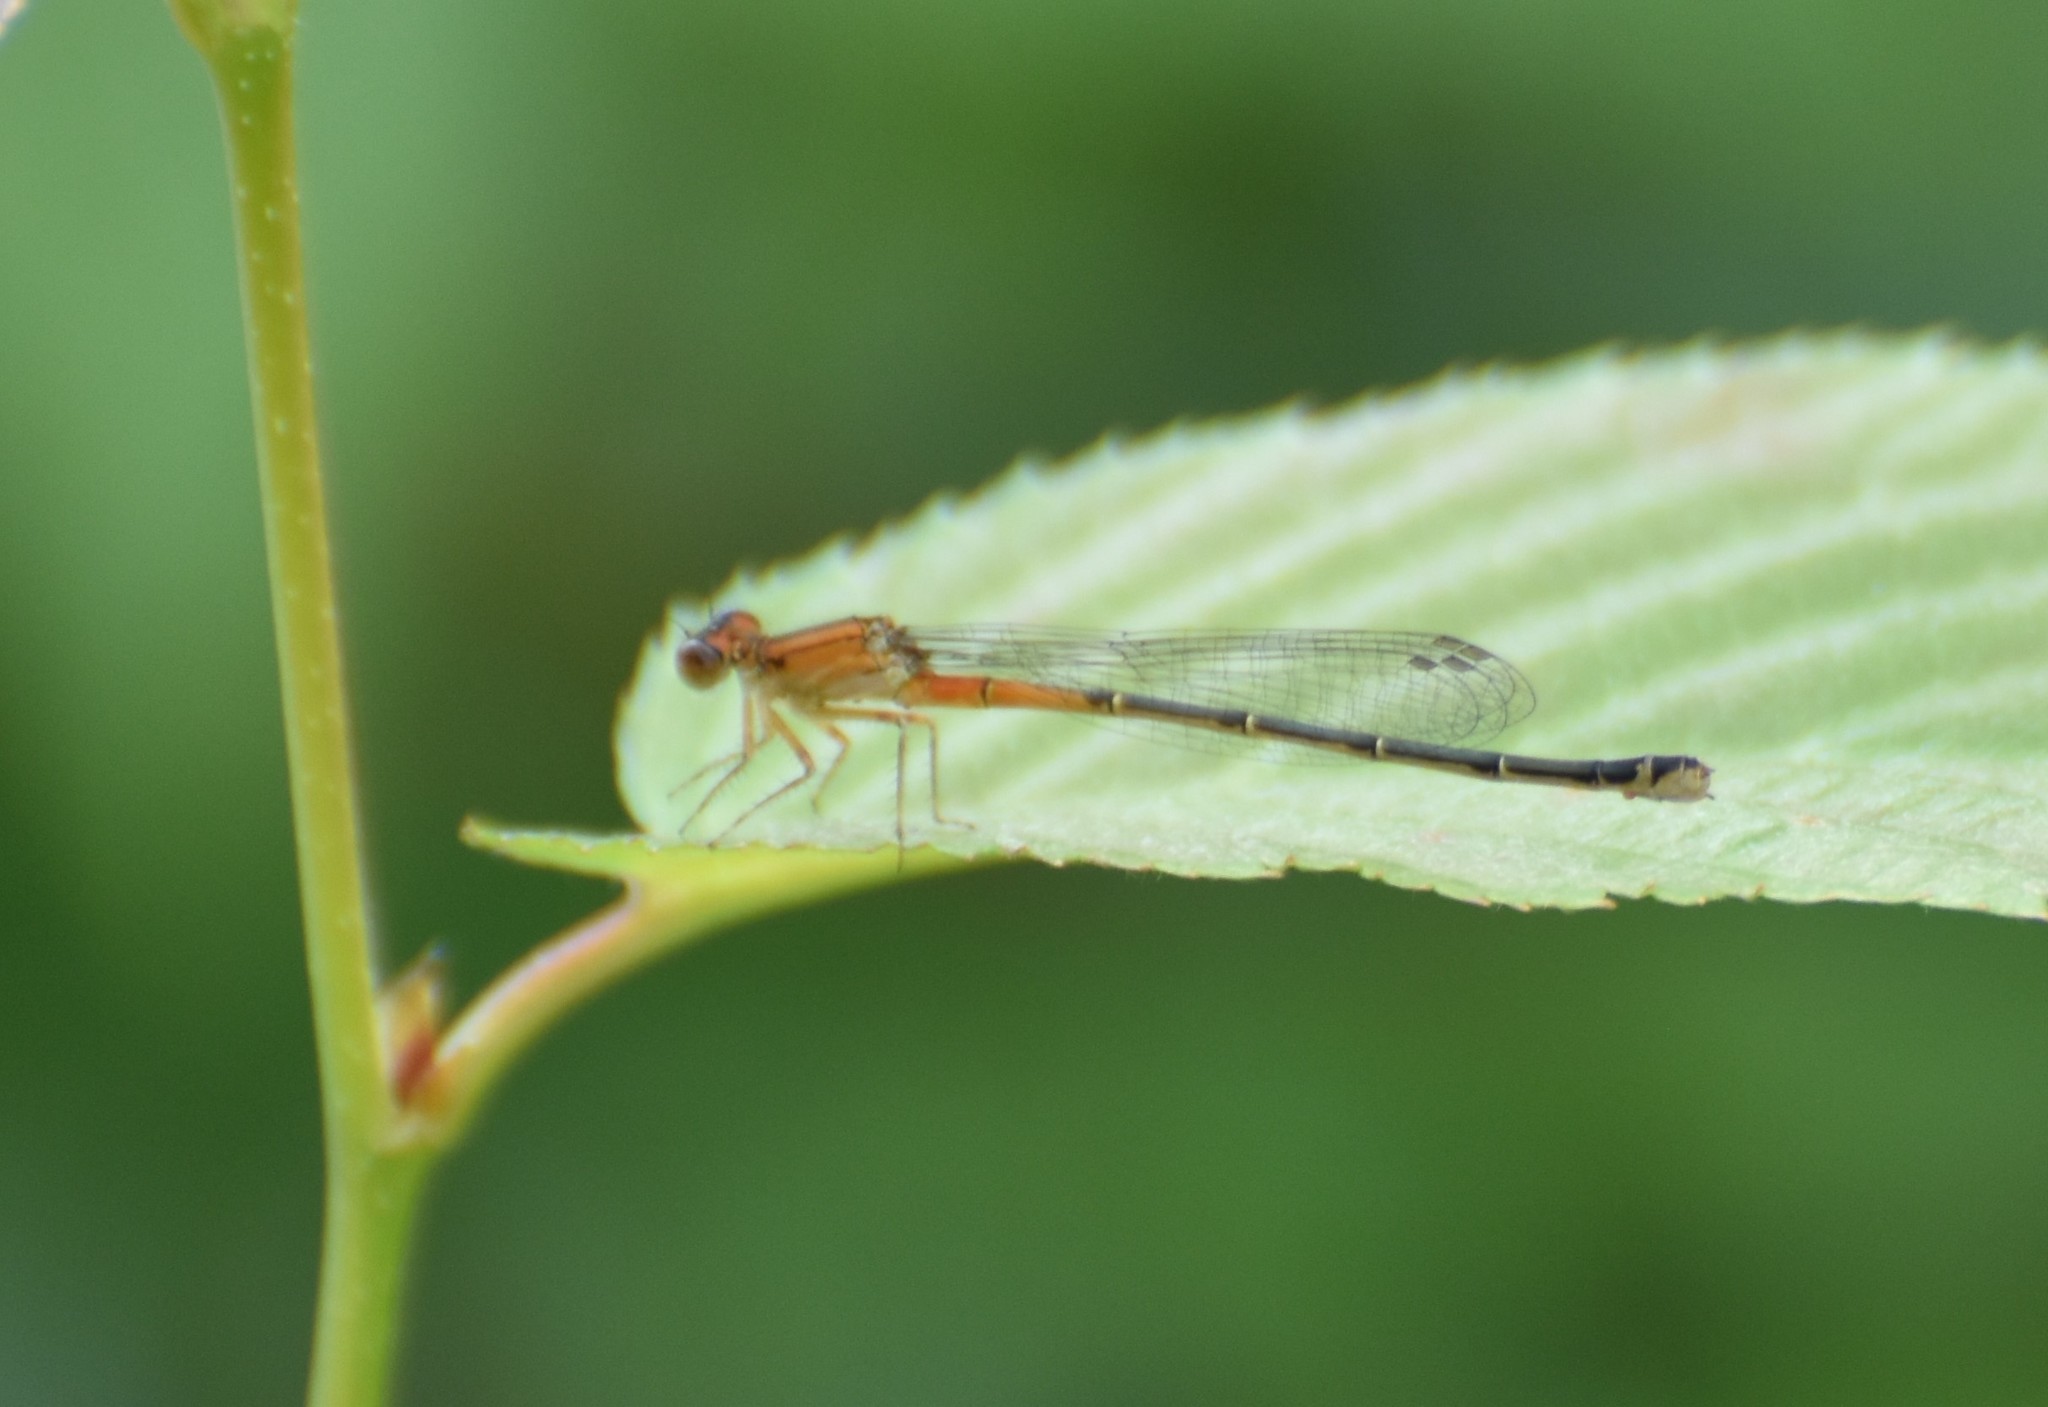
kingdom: Animalia
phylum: Arthropoda
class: Insecta
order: Odonata
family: Coenagrionidae
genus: Ischnura
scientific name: Ischnura verticalis
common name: Eastern forktail
